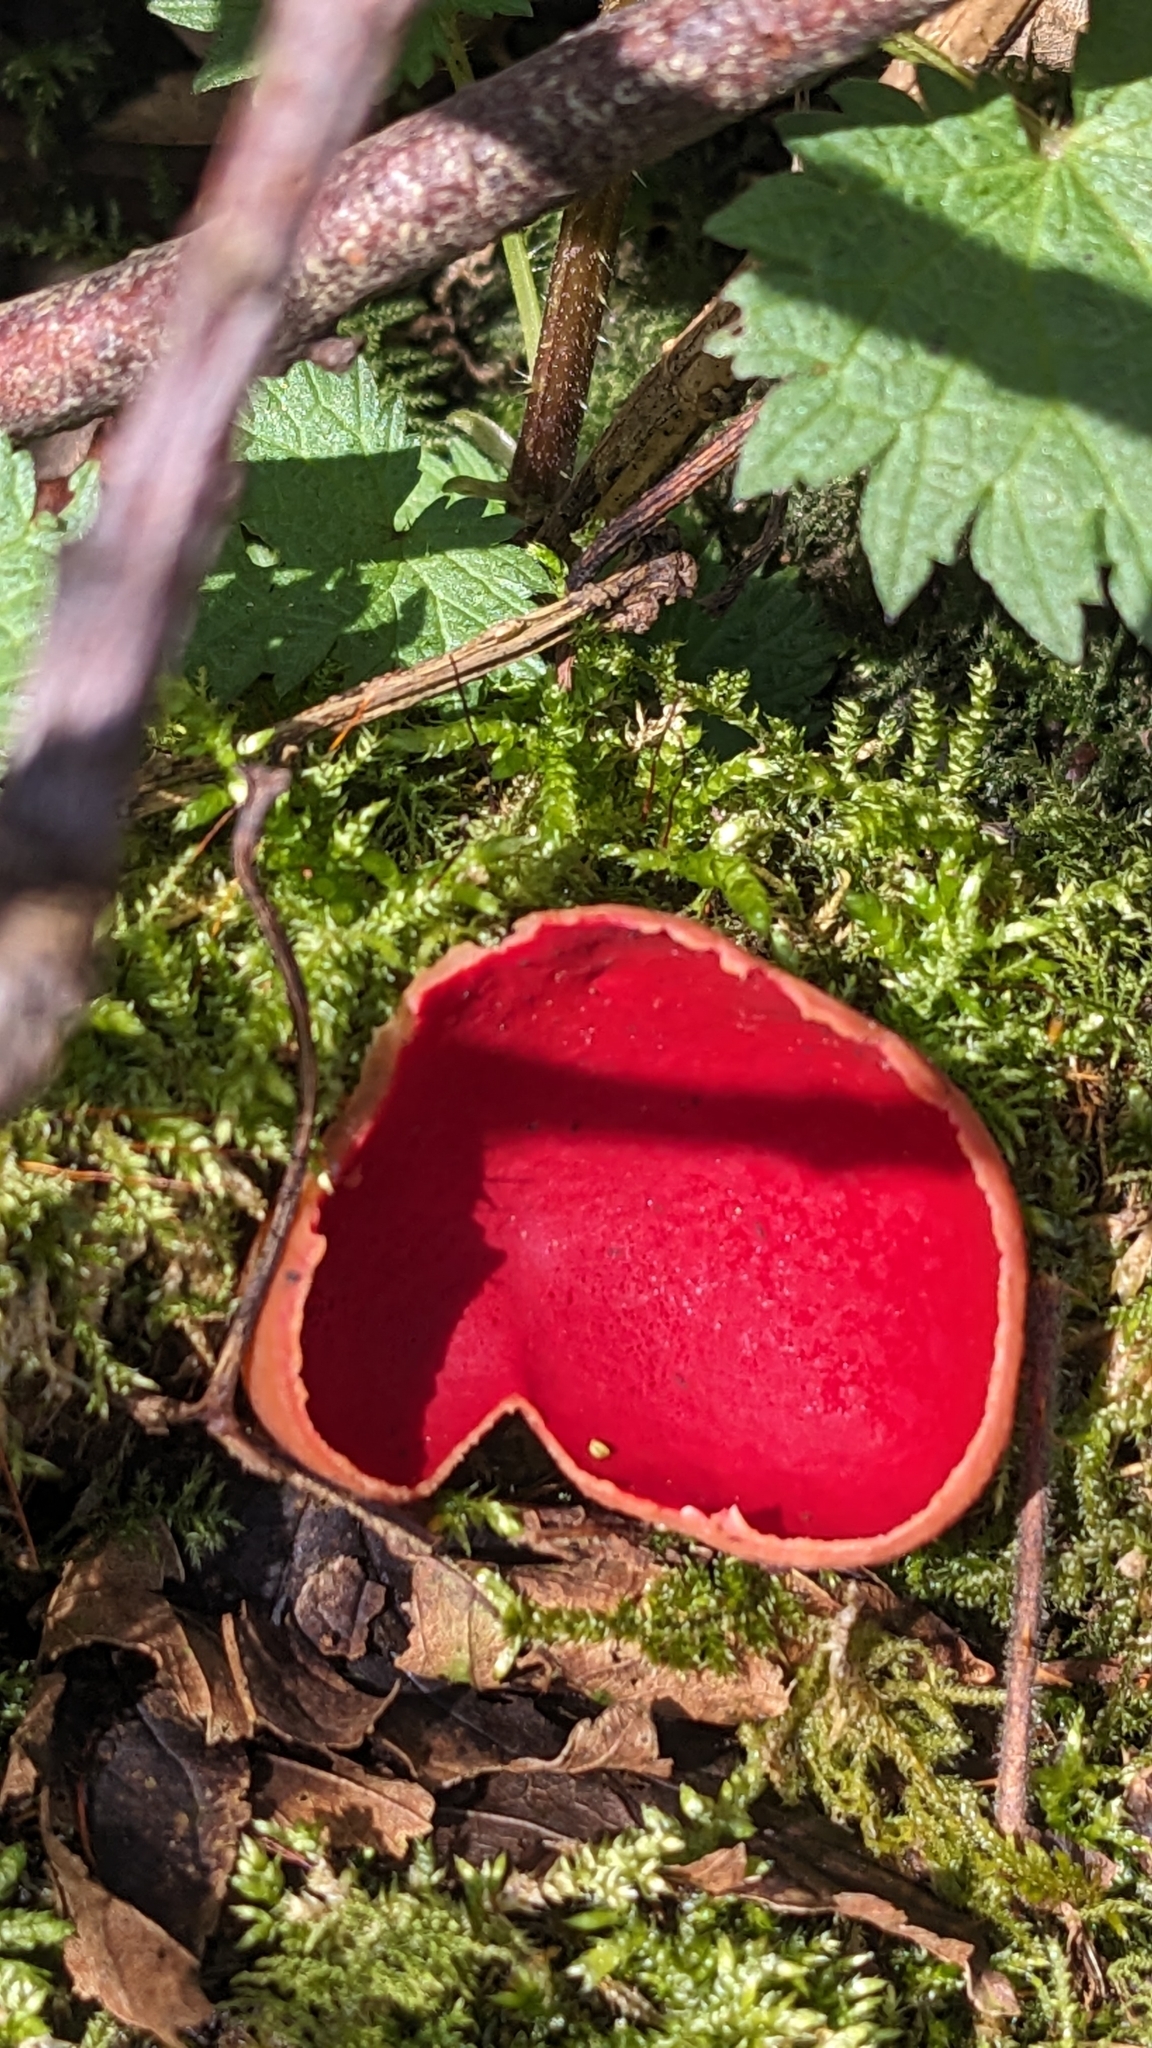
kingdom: Fungi
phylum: Ascomycota
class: Pezizomycetes
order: Pezizales
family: Sarcoscyphaceae
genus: Sarcoscypha
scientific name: Sarcoscypha
